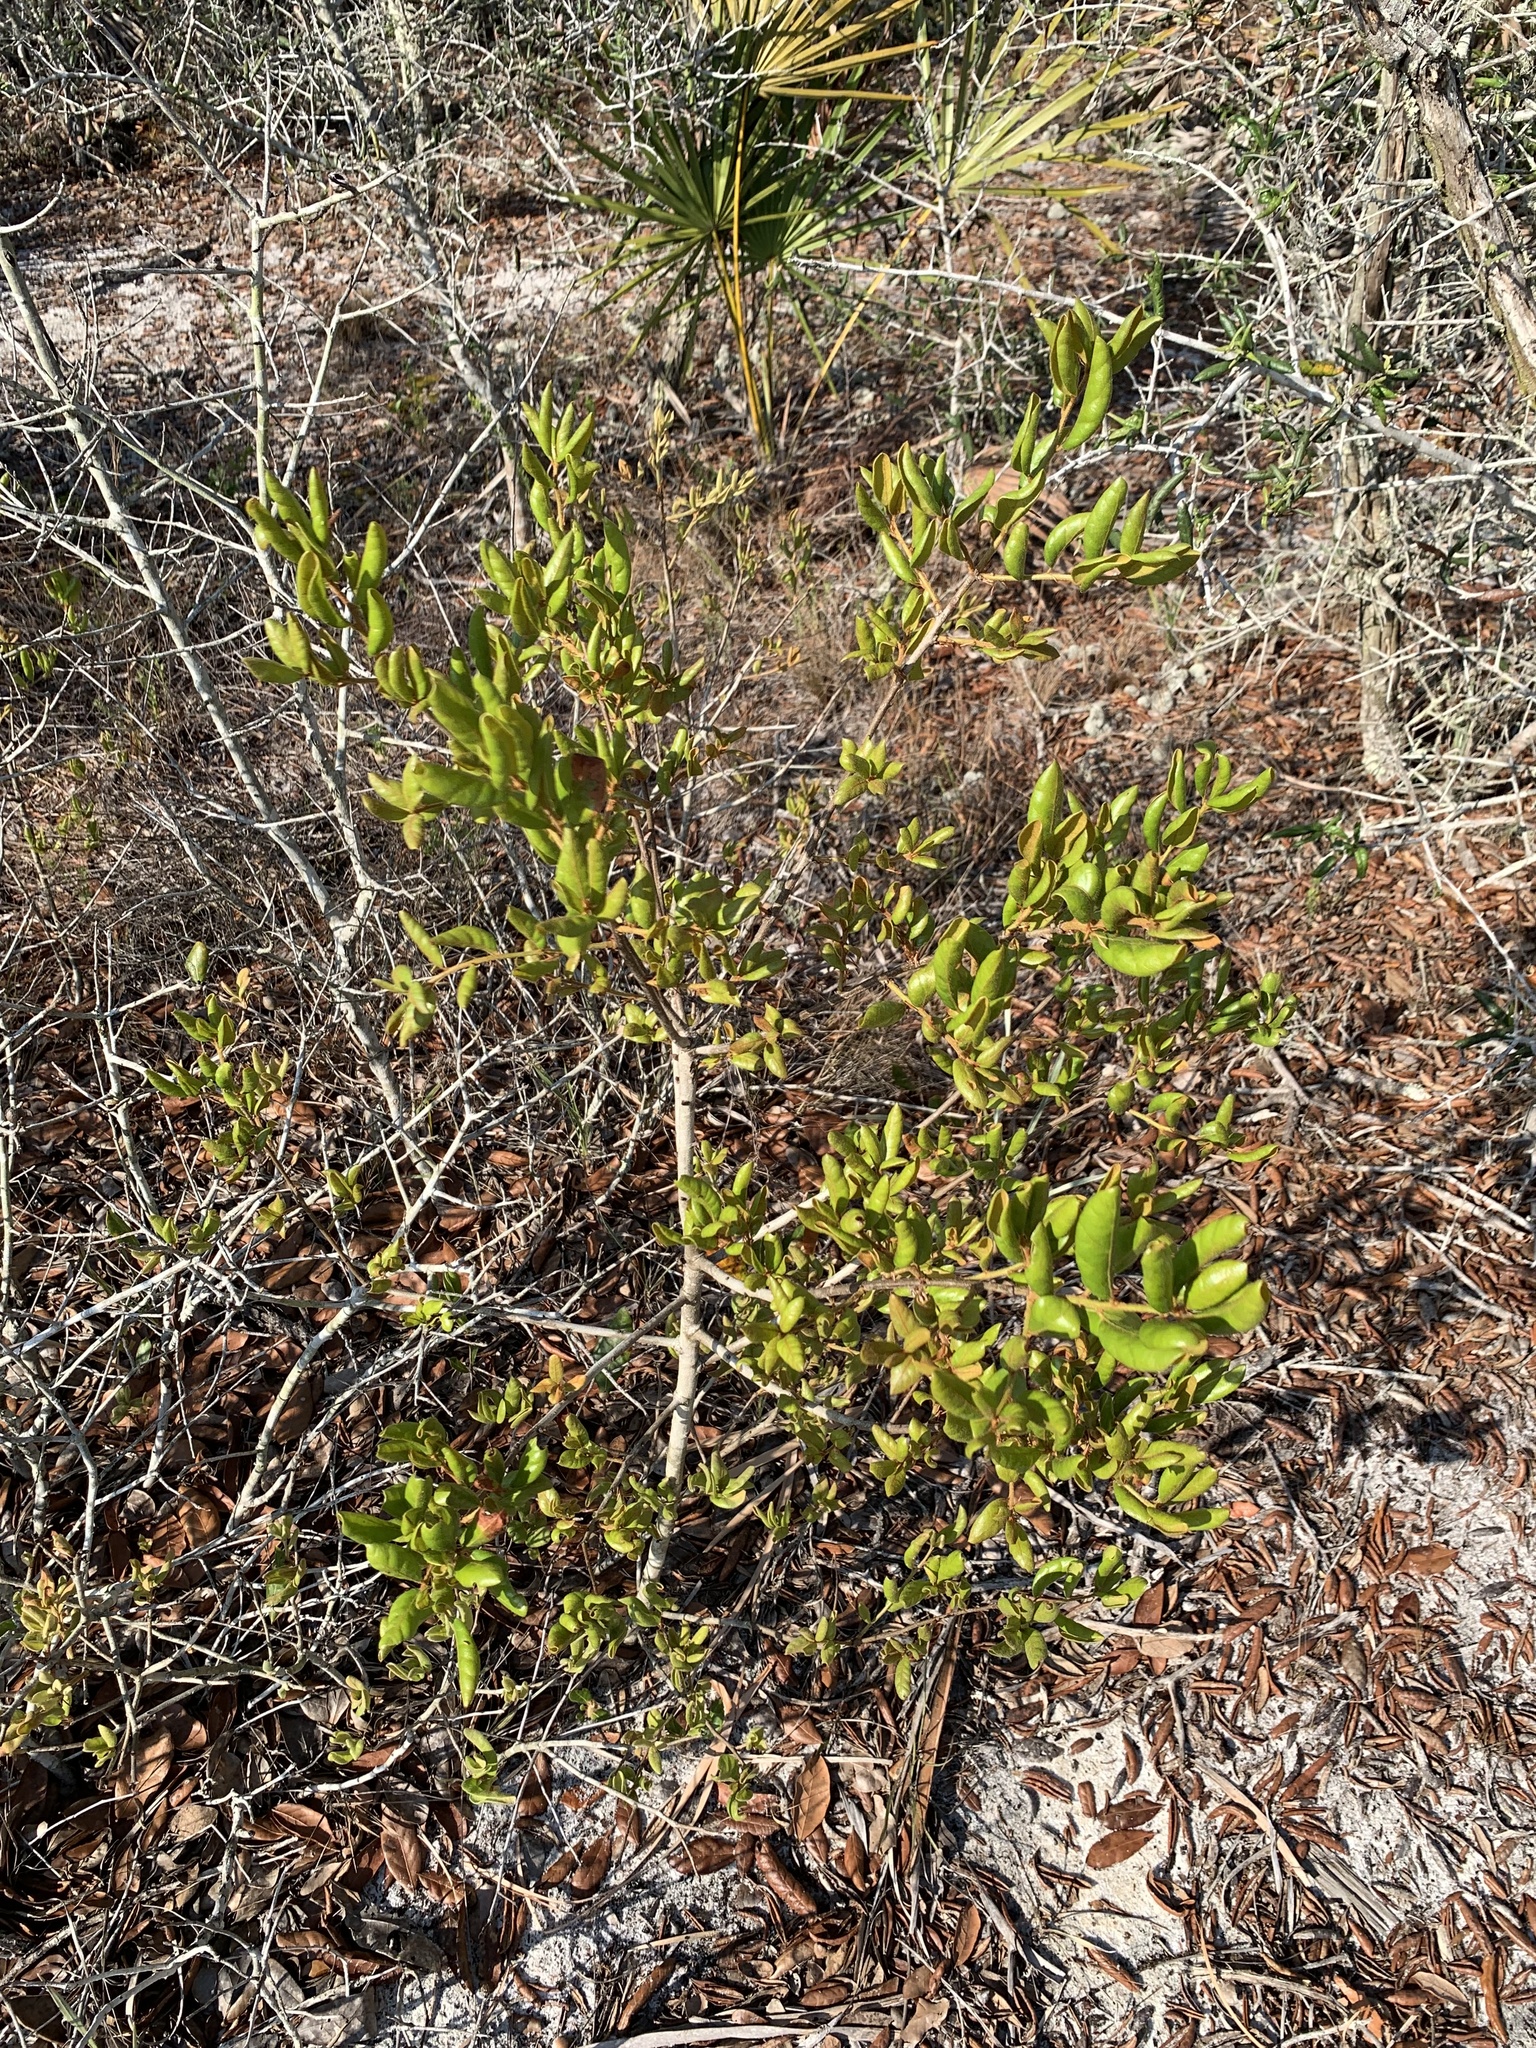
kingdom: Plantae
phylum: Tracheophyta
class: Magnoliopsida
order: Fagales
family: Fagaceae
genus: Quercus
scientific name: Quercus inopina
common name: Sandhill oak
